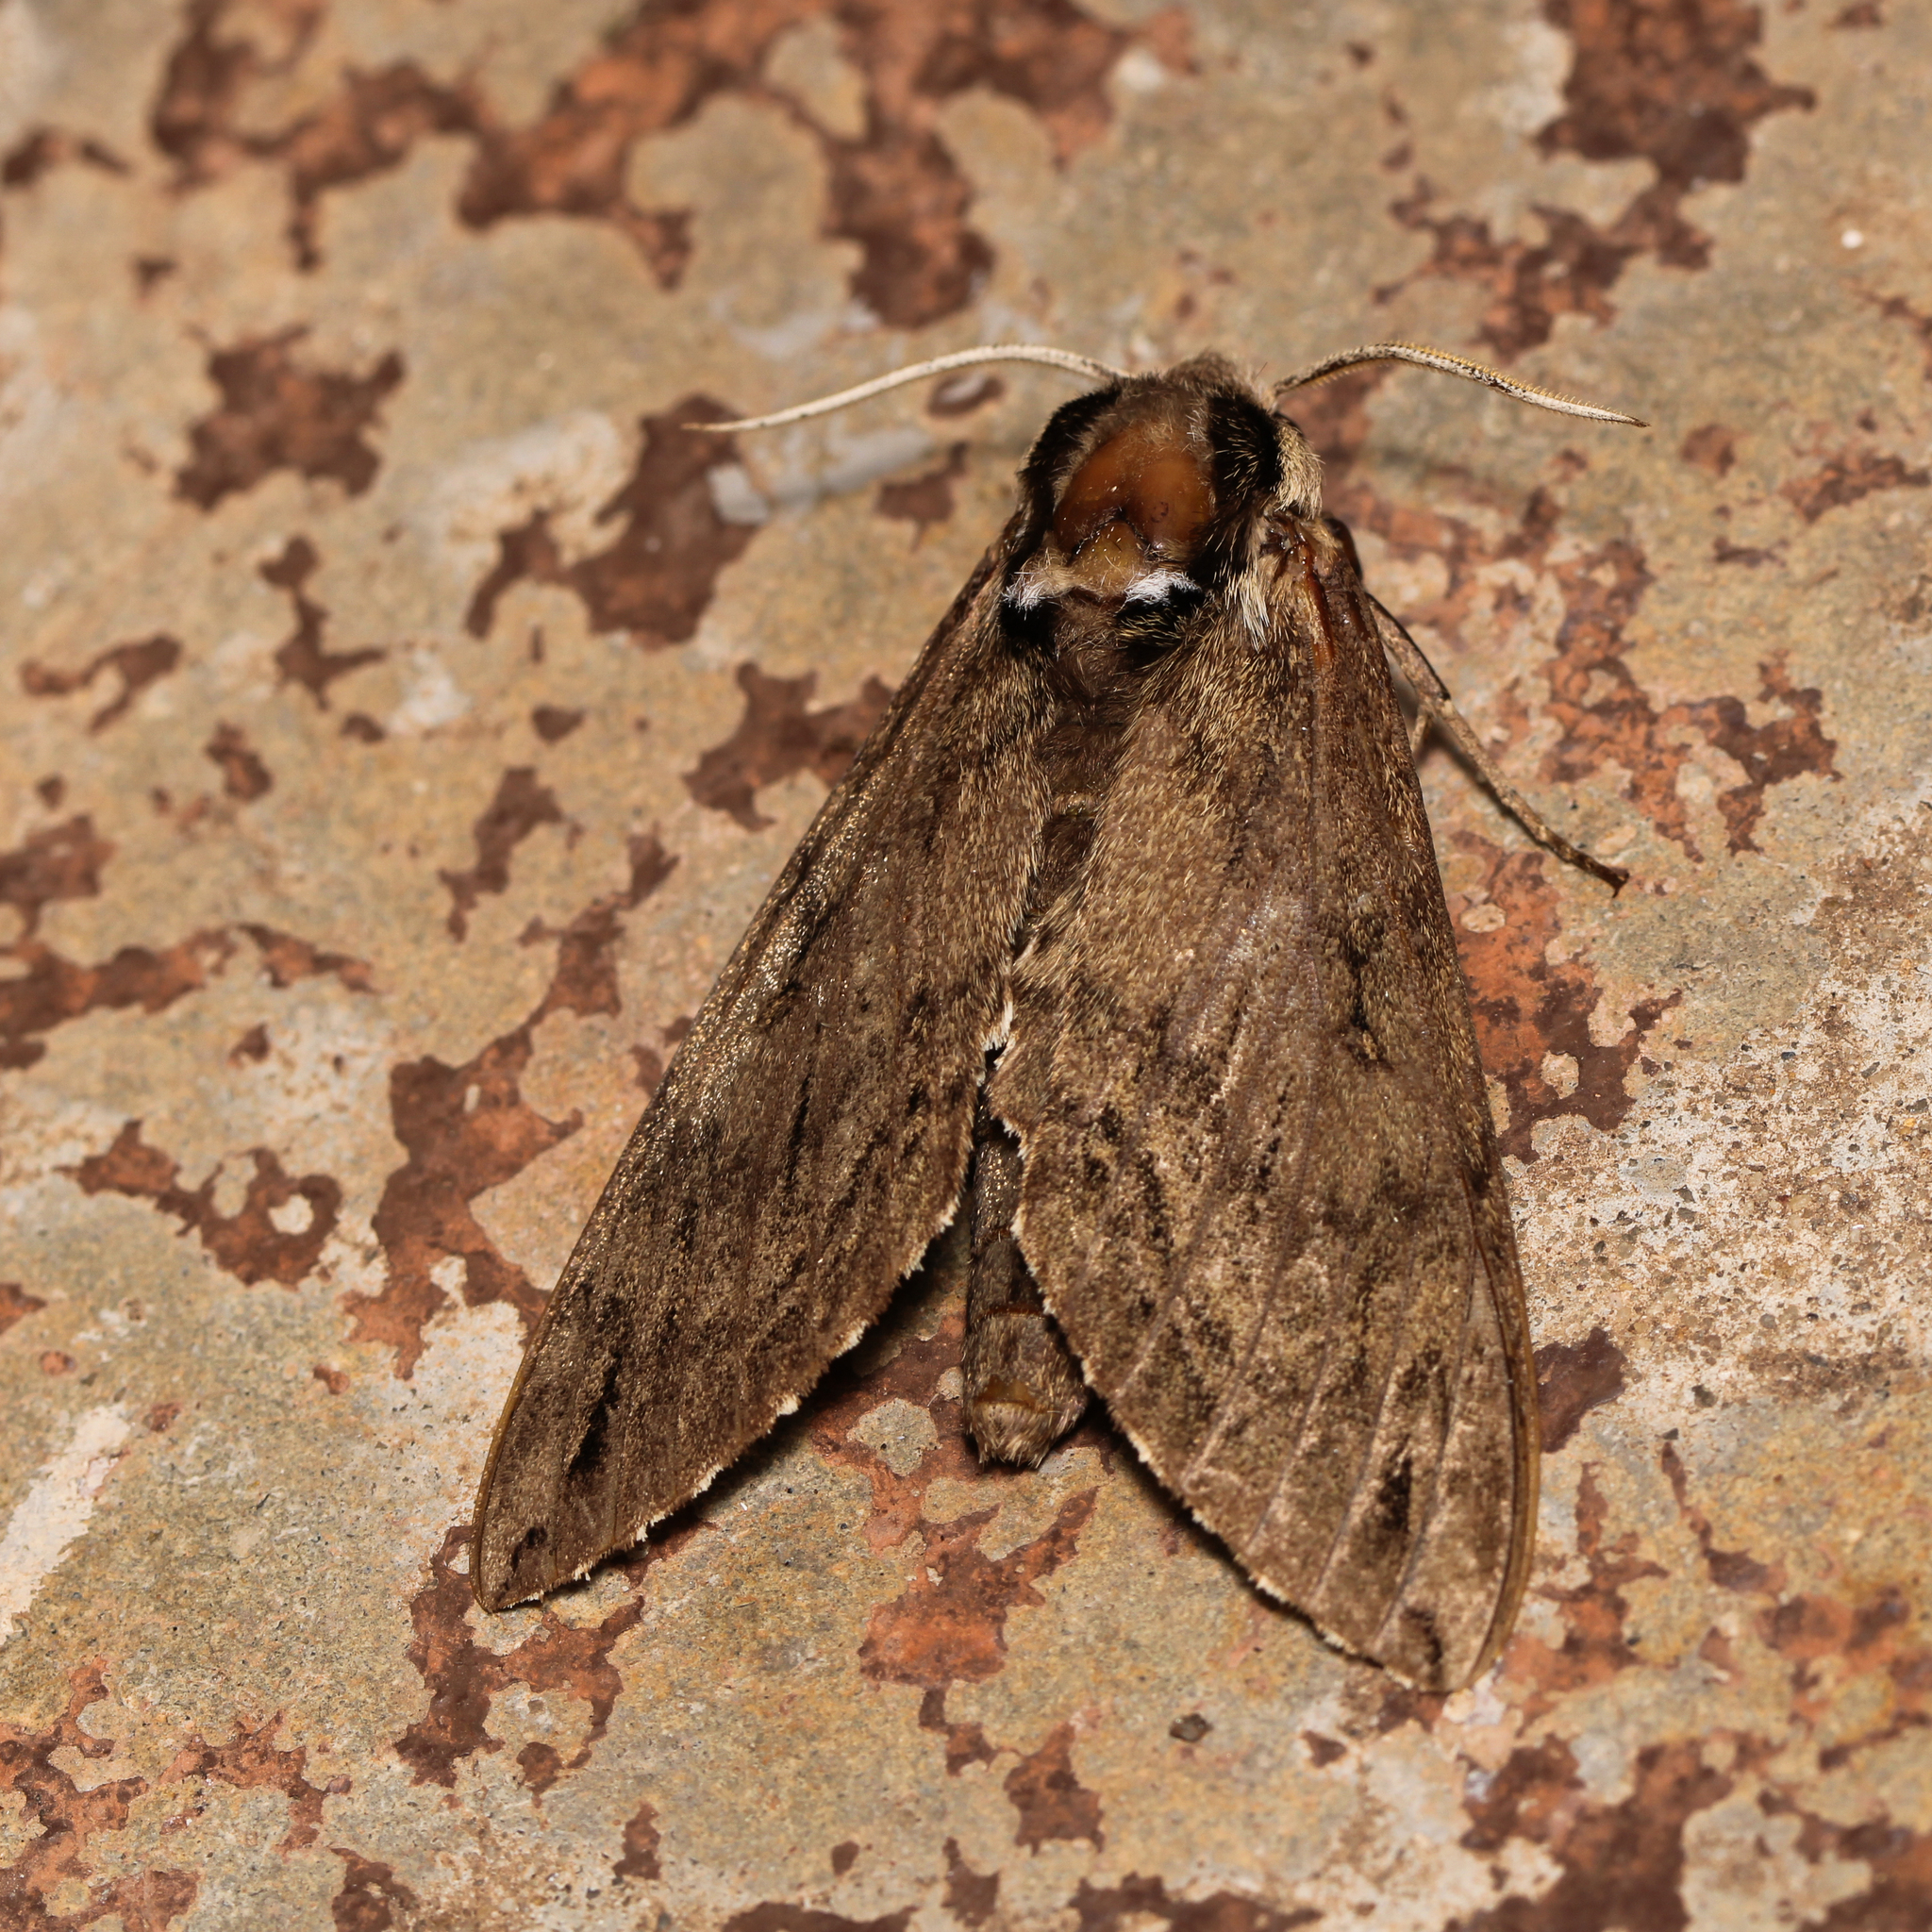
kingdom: Animalia
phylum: Arthropoda
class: Insecta
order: Lepidoptera
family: Sphingidae
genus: Ceratomia
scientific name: Ceratomia catalpae
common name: Catalpa hornworm
